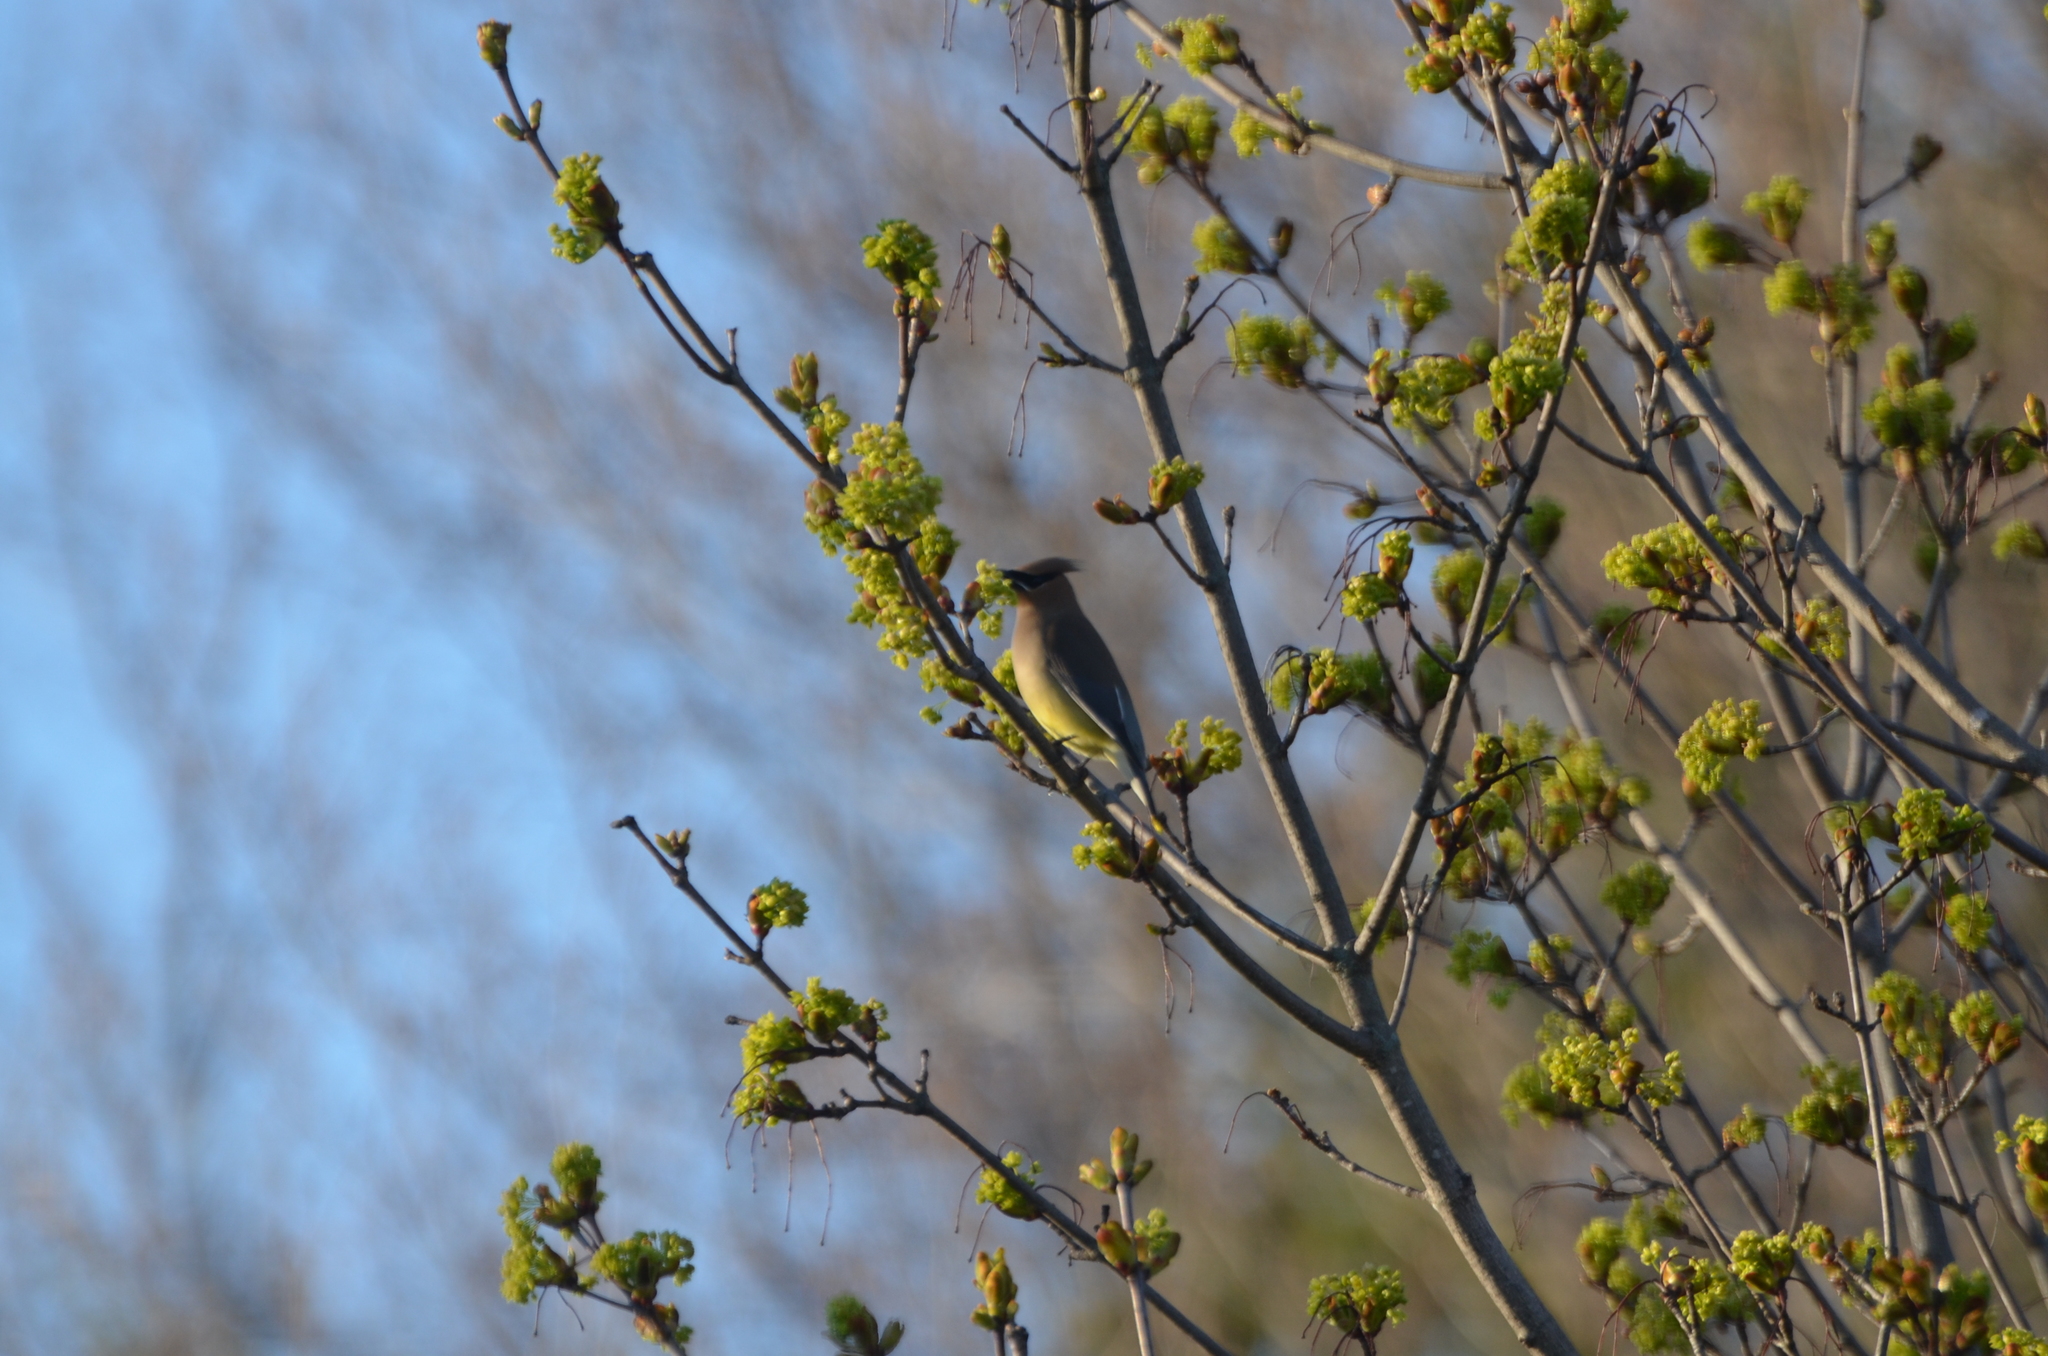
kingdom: Animalia
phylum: Chordata
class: Aves
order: Passeriformes
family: Bombycillidae
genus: Bombycilla
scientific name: Bombycilla cedrorum
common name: Cedar waxwing
